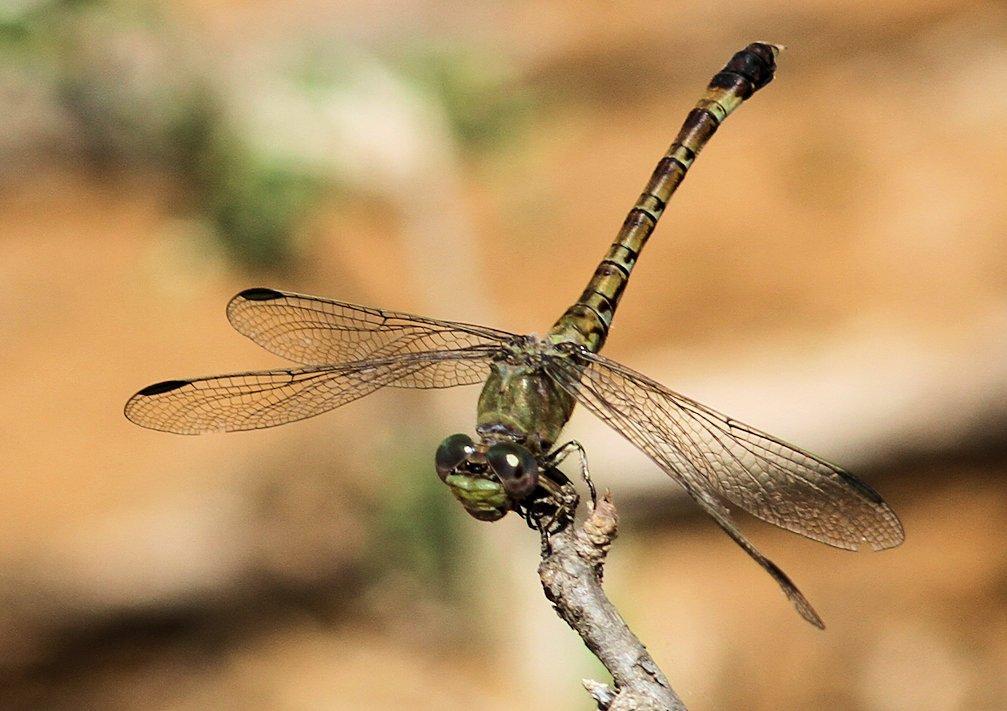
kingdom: Animalia
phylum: Arthropoda
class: Insecta
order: Odonata
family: Gomphidae
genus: Paragomphus
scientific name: Paragomphus genei
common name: Common hooktail
